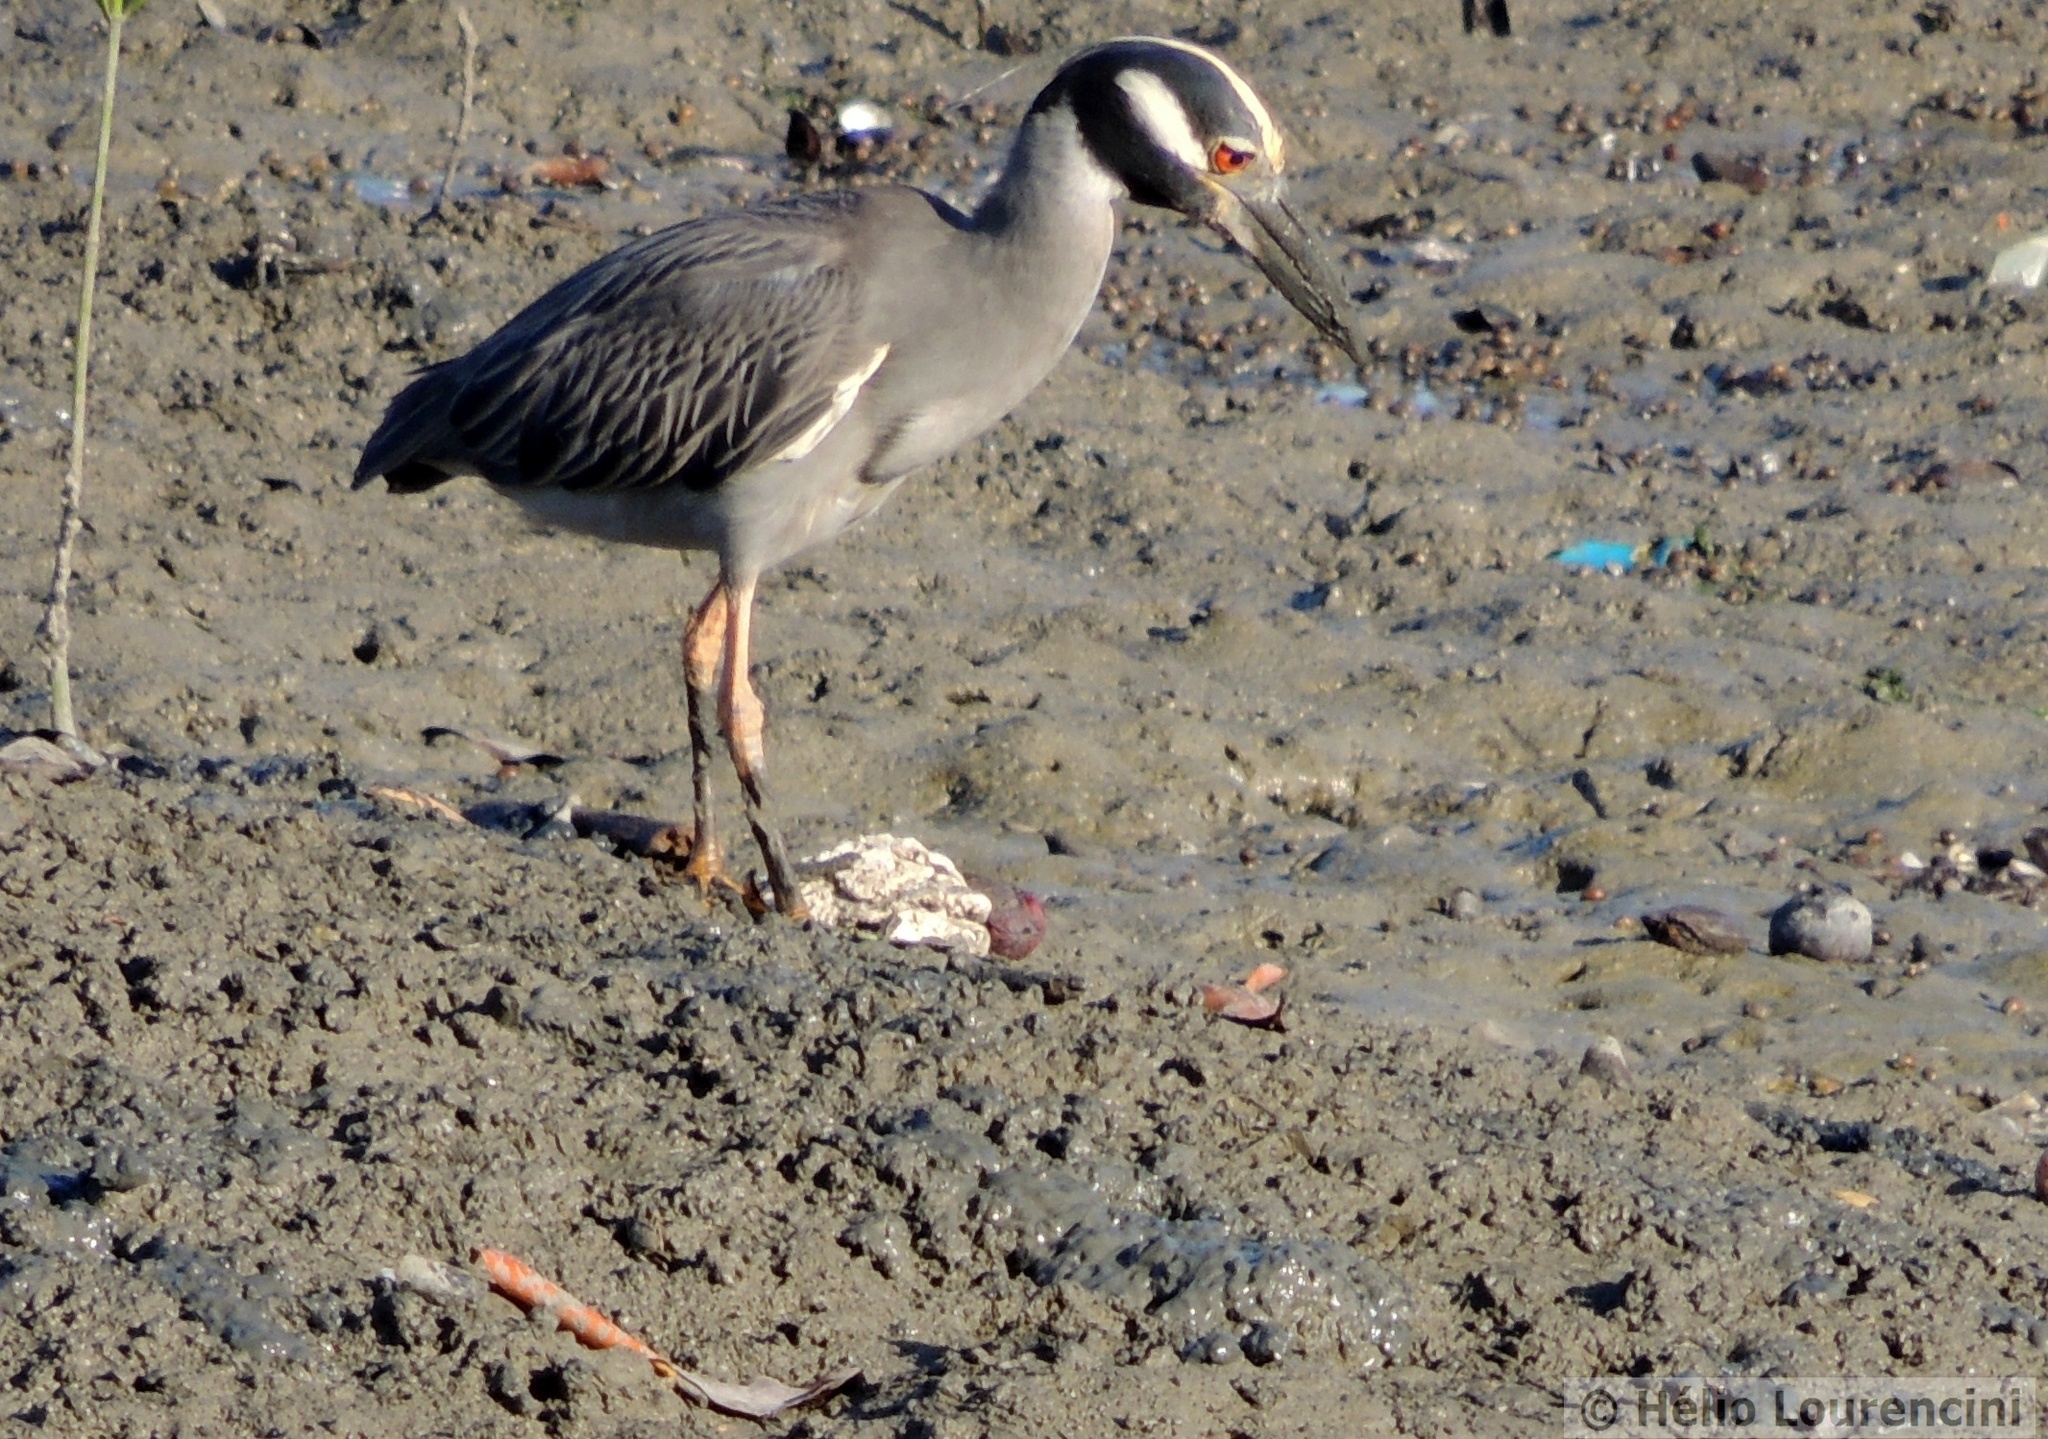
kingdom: Animalia
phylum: Chordata
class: Aves
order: Pelecaniformes
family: Ardeidae
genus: Nyctanassa
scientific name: Nyctanassa violacea
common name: Yellow-crowned night heron
